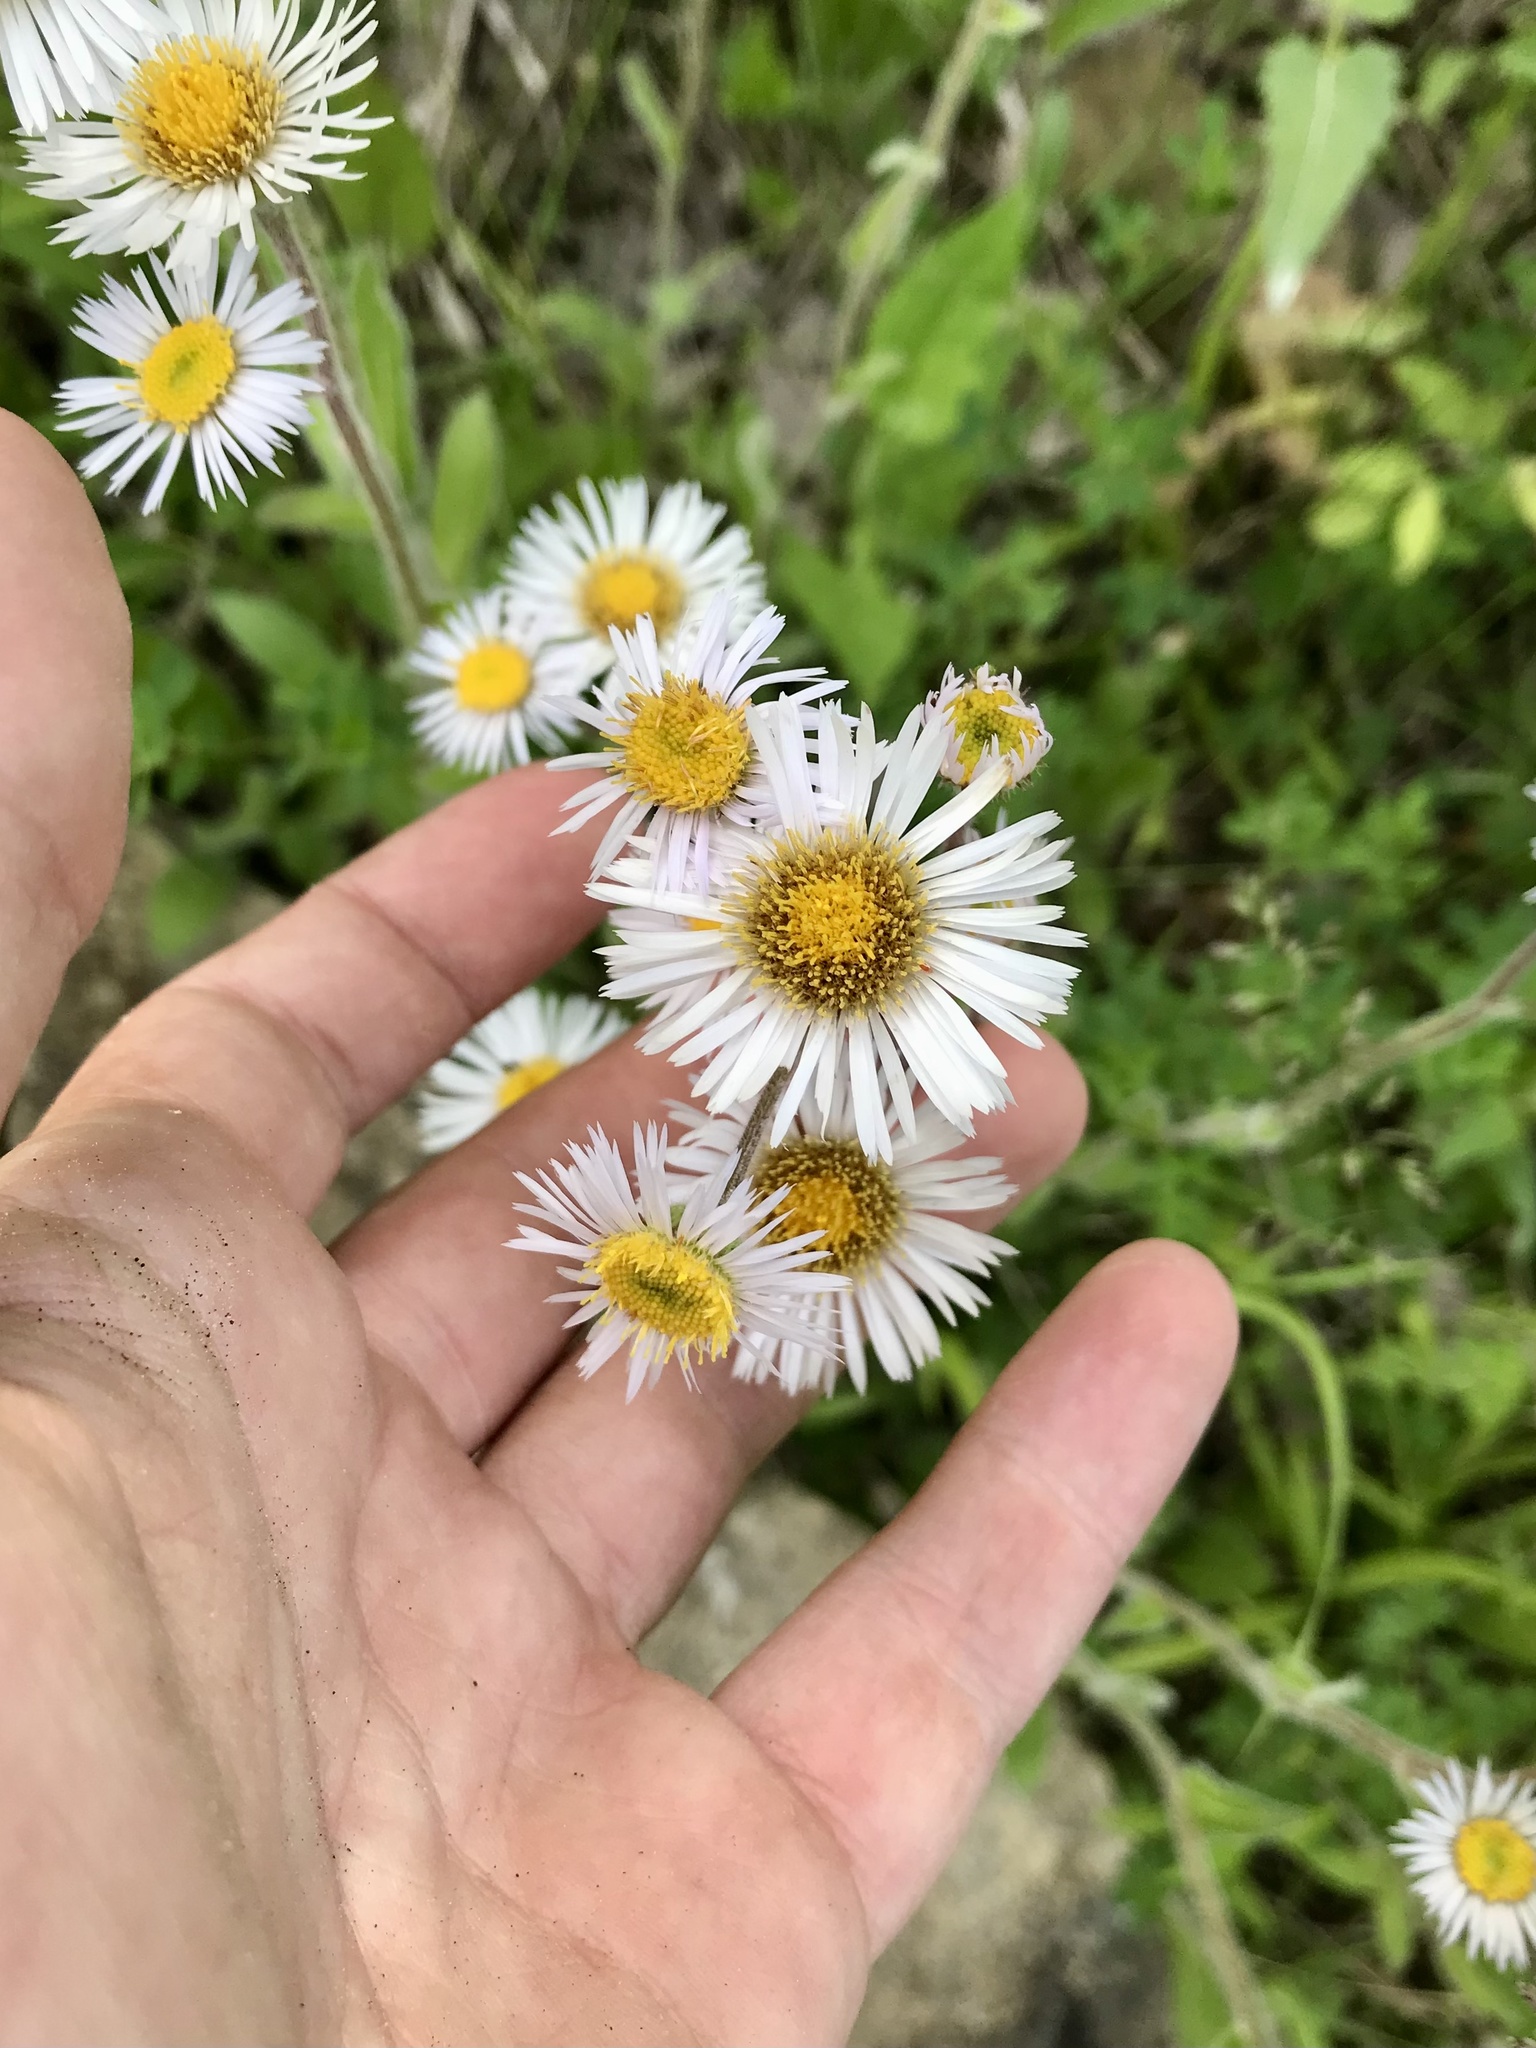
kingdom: Plantae
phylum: Tracheophyta
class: Magnoliopsida
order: Asterales
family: Asteraceae
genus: Erigeron
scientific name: Erigeron pulchellus
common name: Hairy fleabane
